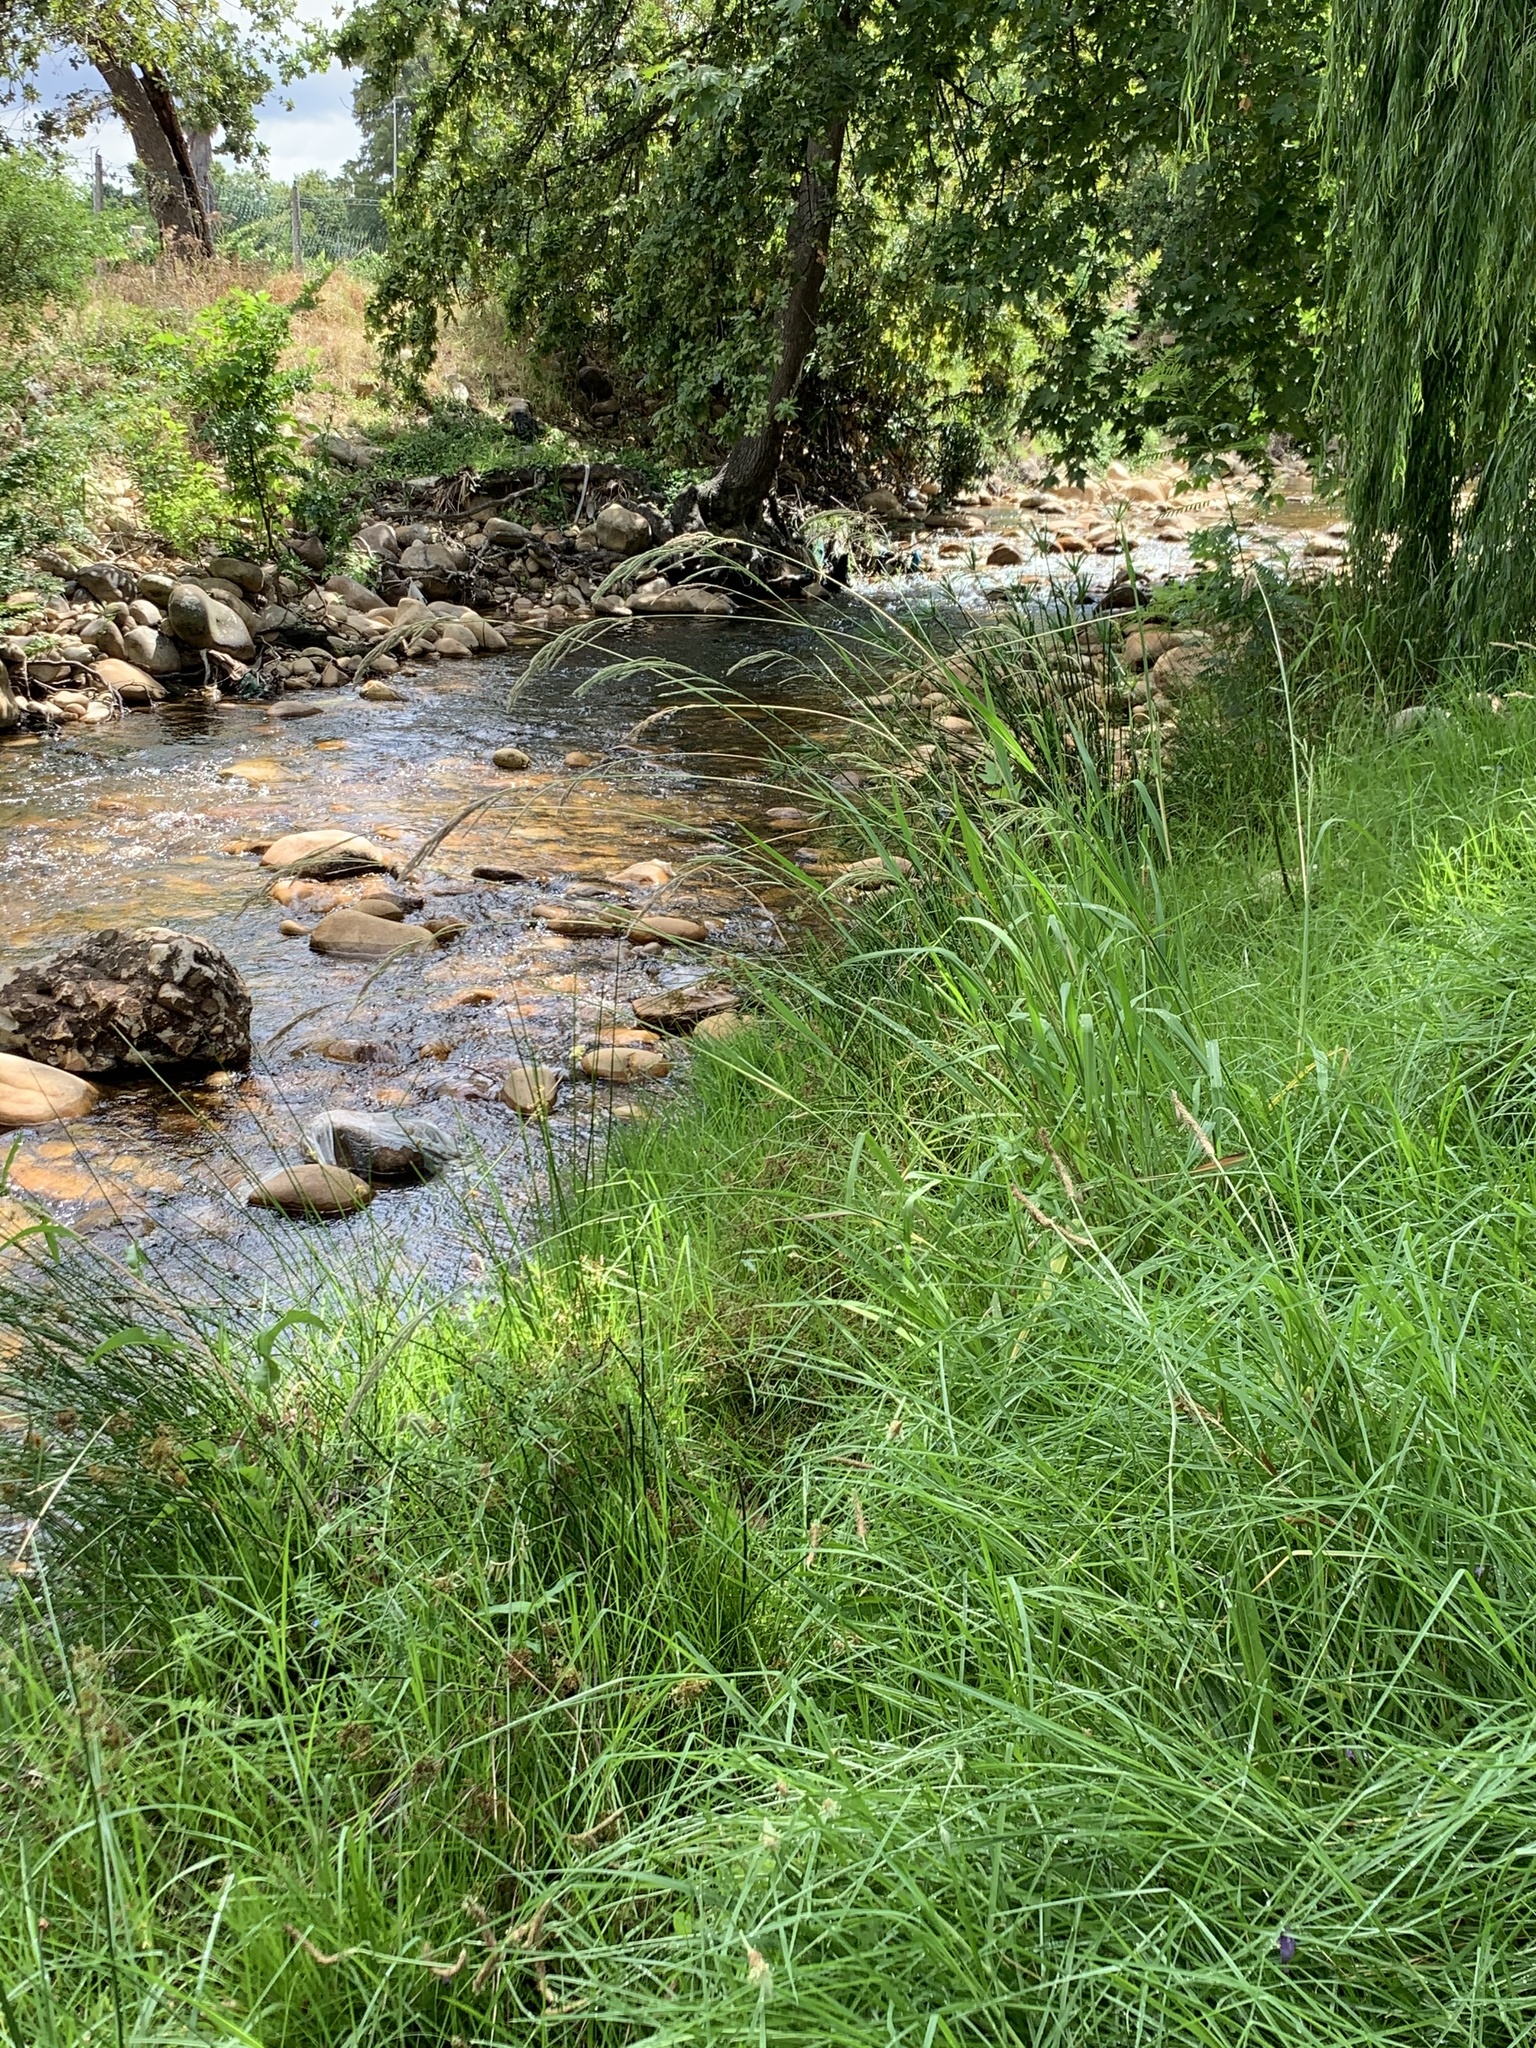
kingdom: Plantae
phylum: Tracheophyta
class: Liliopsida
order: Poales
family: Poaceae
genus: Paspalum
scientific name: Paspalum urvillei
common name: Vasey's grass
